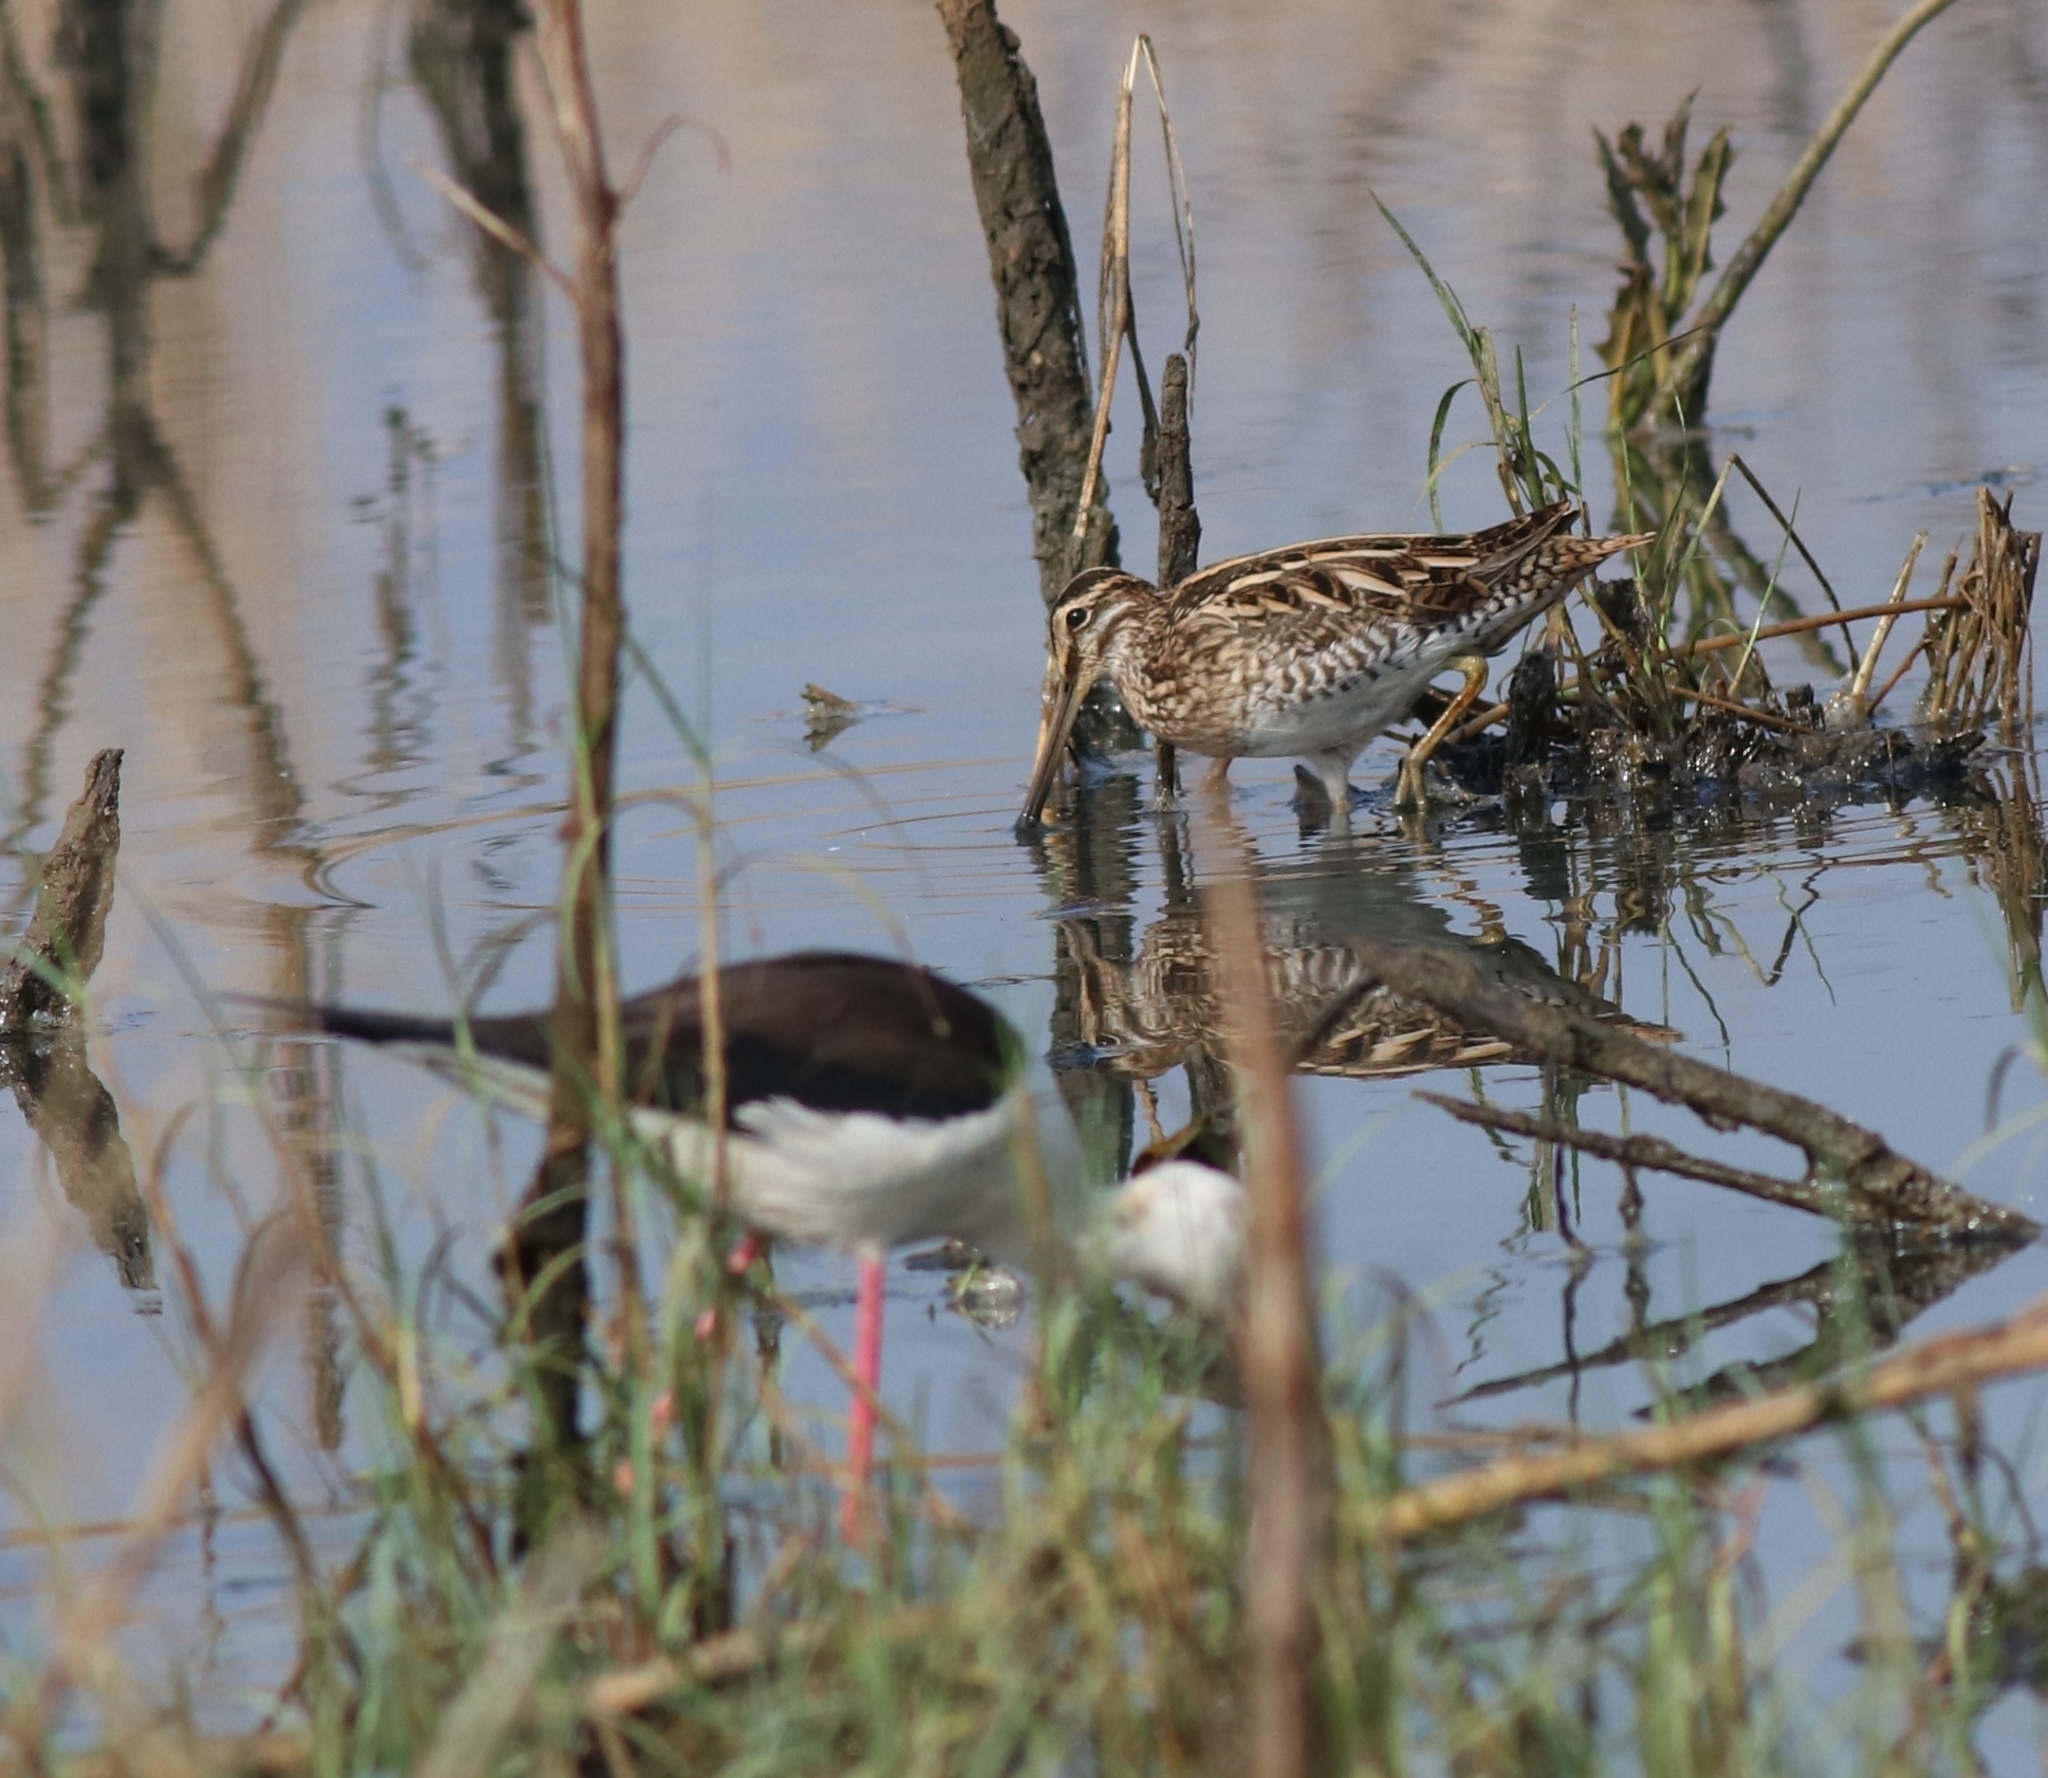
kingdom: Animalia
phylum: Chordata
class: Aves
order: Charadriiformes
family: Recurvirostridae
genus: Himantopus
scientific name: Himantopus himantopus
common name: Black-winged stilt
